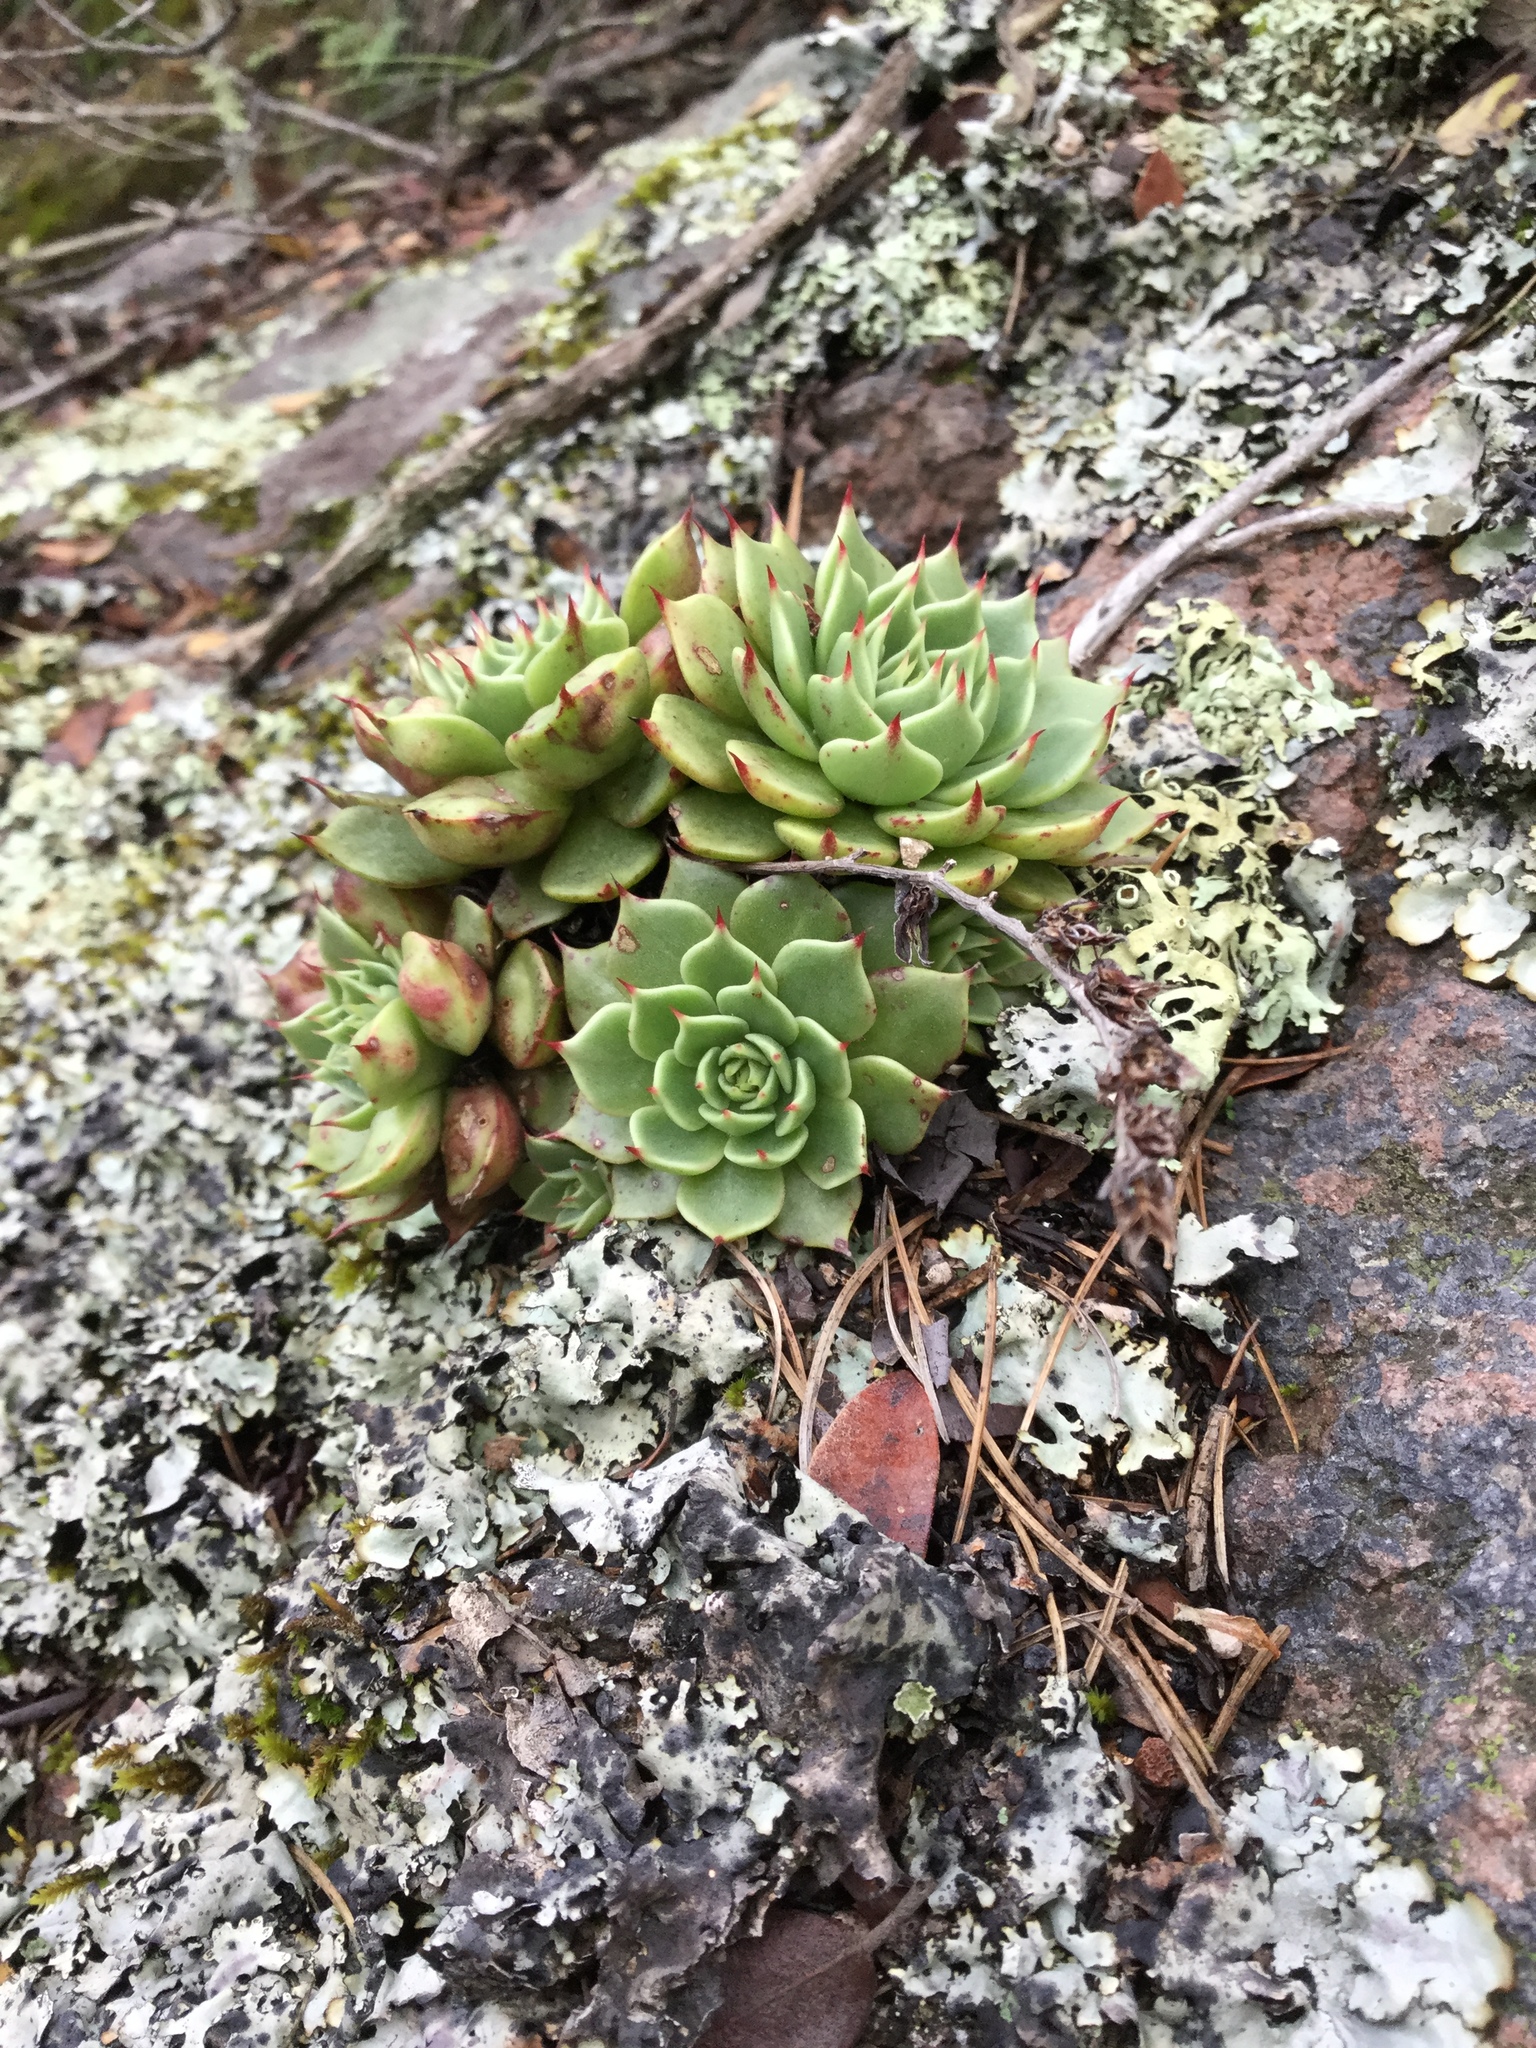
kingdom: Plantae
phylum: Tracheophyta
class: Magnoliopsida
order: Saxifragales
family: Crassulaceae
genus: Echeveria
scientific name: Echeveria secunda
